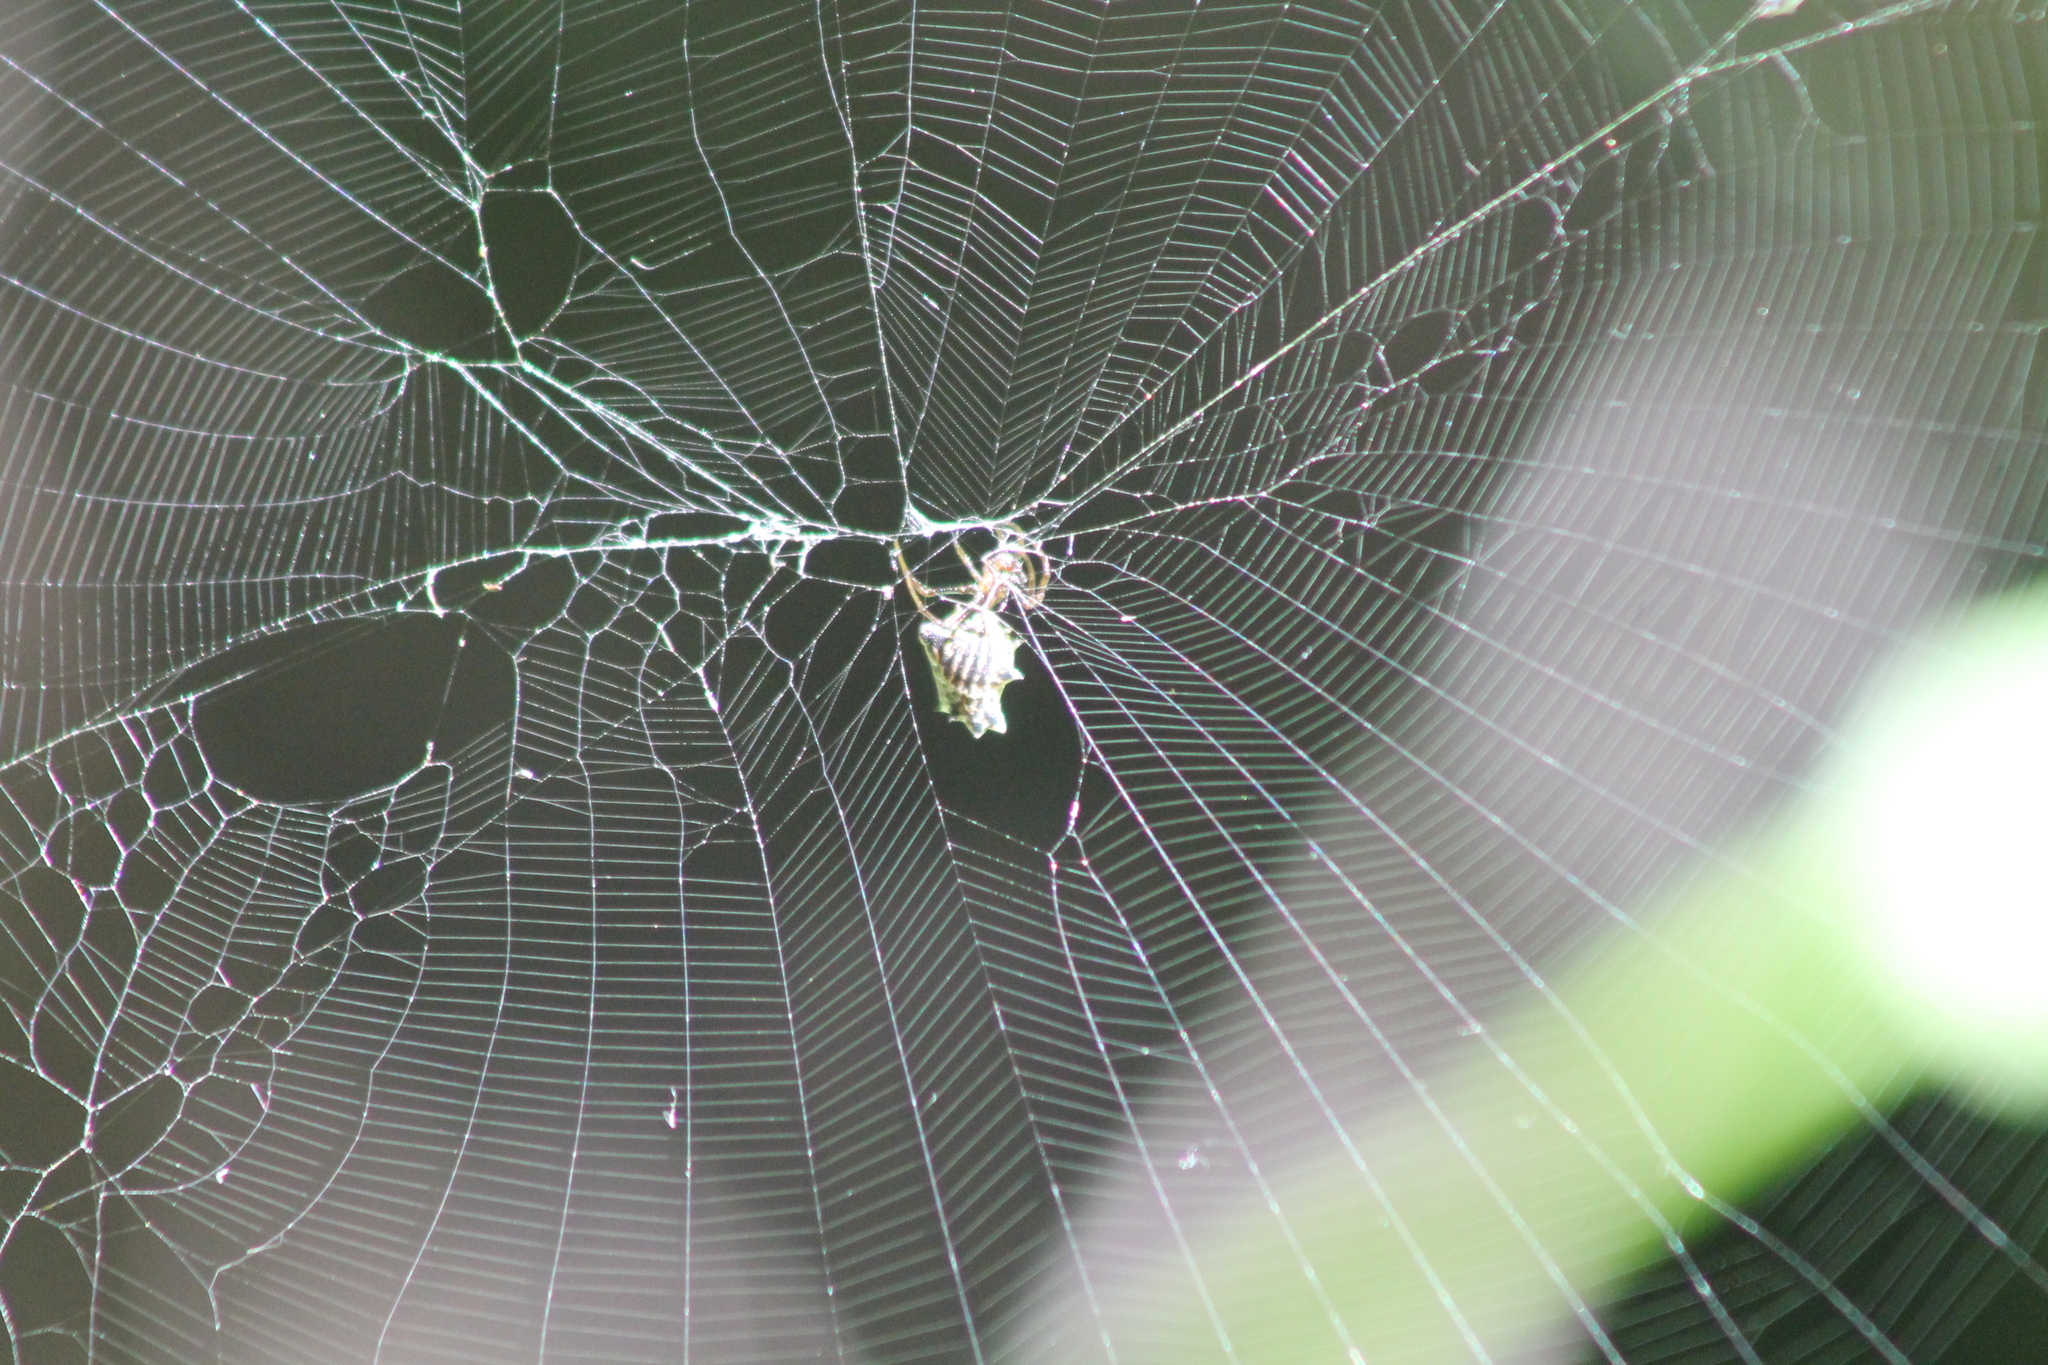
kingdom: Animalia
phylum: Arthropoda
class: Arachnida
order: Araneae
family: Araneidae
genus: Micrathena
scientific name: Micrathena gracilis
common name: Orb weavers
